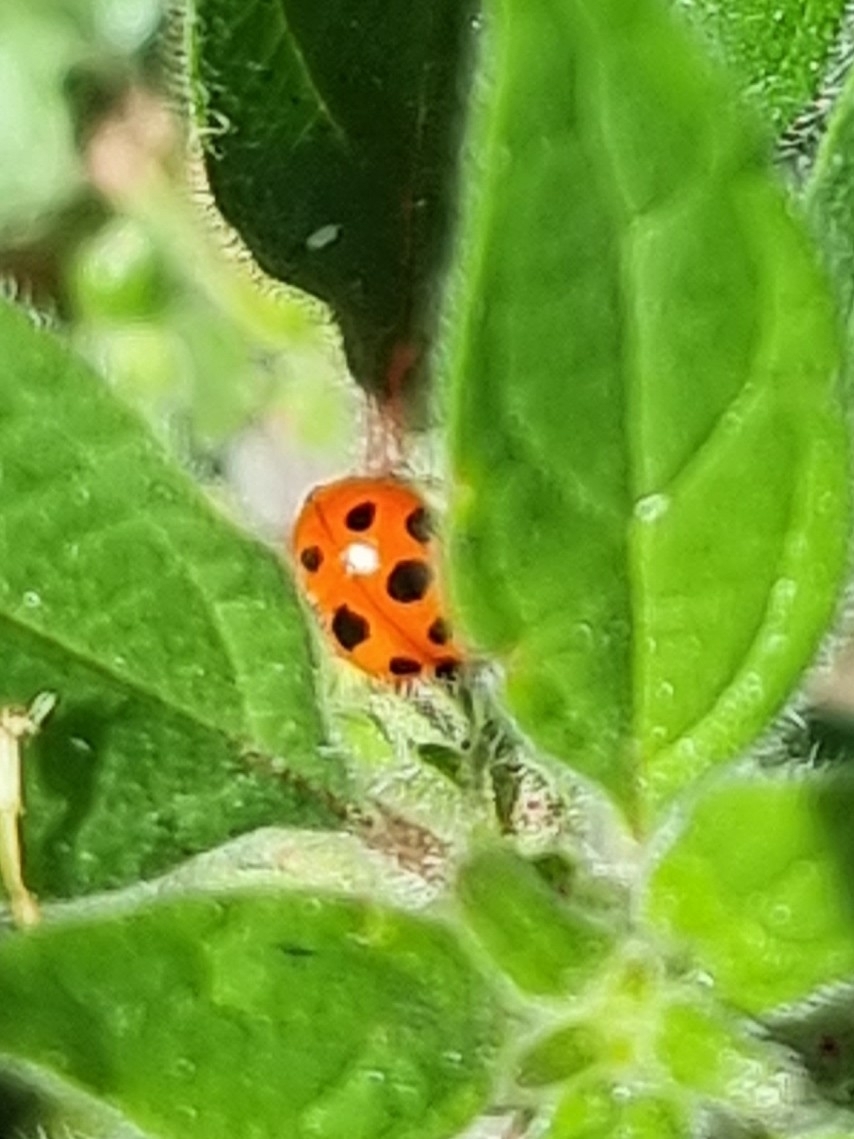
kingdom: Animalia
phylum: Arthropoda
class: Insecta
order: Coleoptera
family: Coccinellidae
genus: Hippodamia
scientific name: Hippodamia variegata
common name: Ladybird beetle
